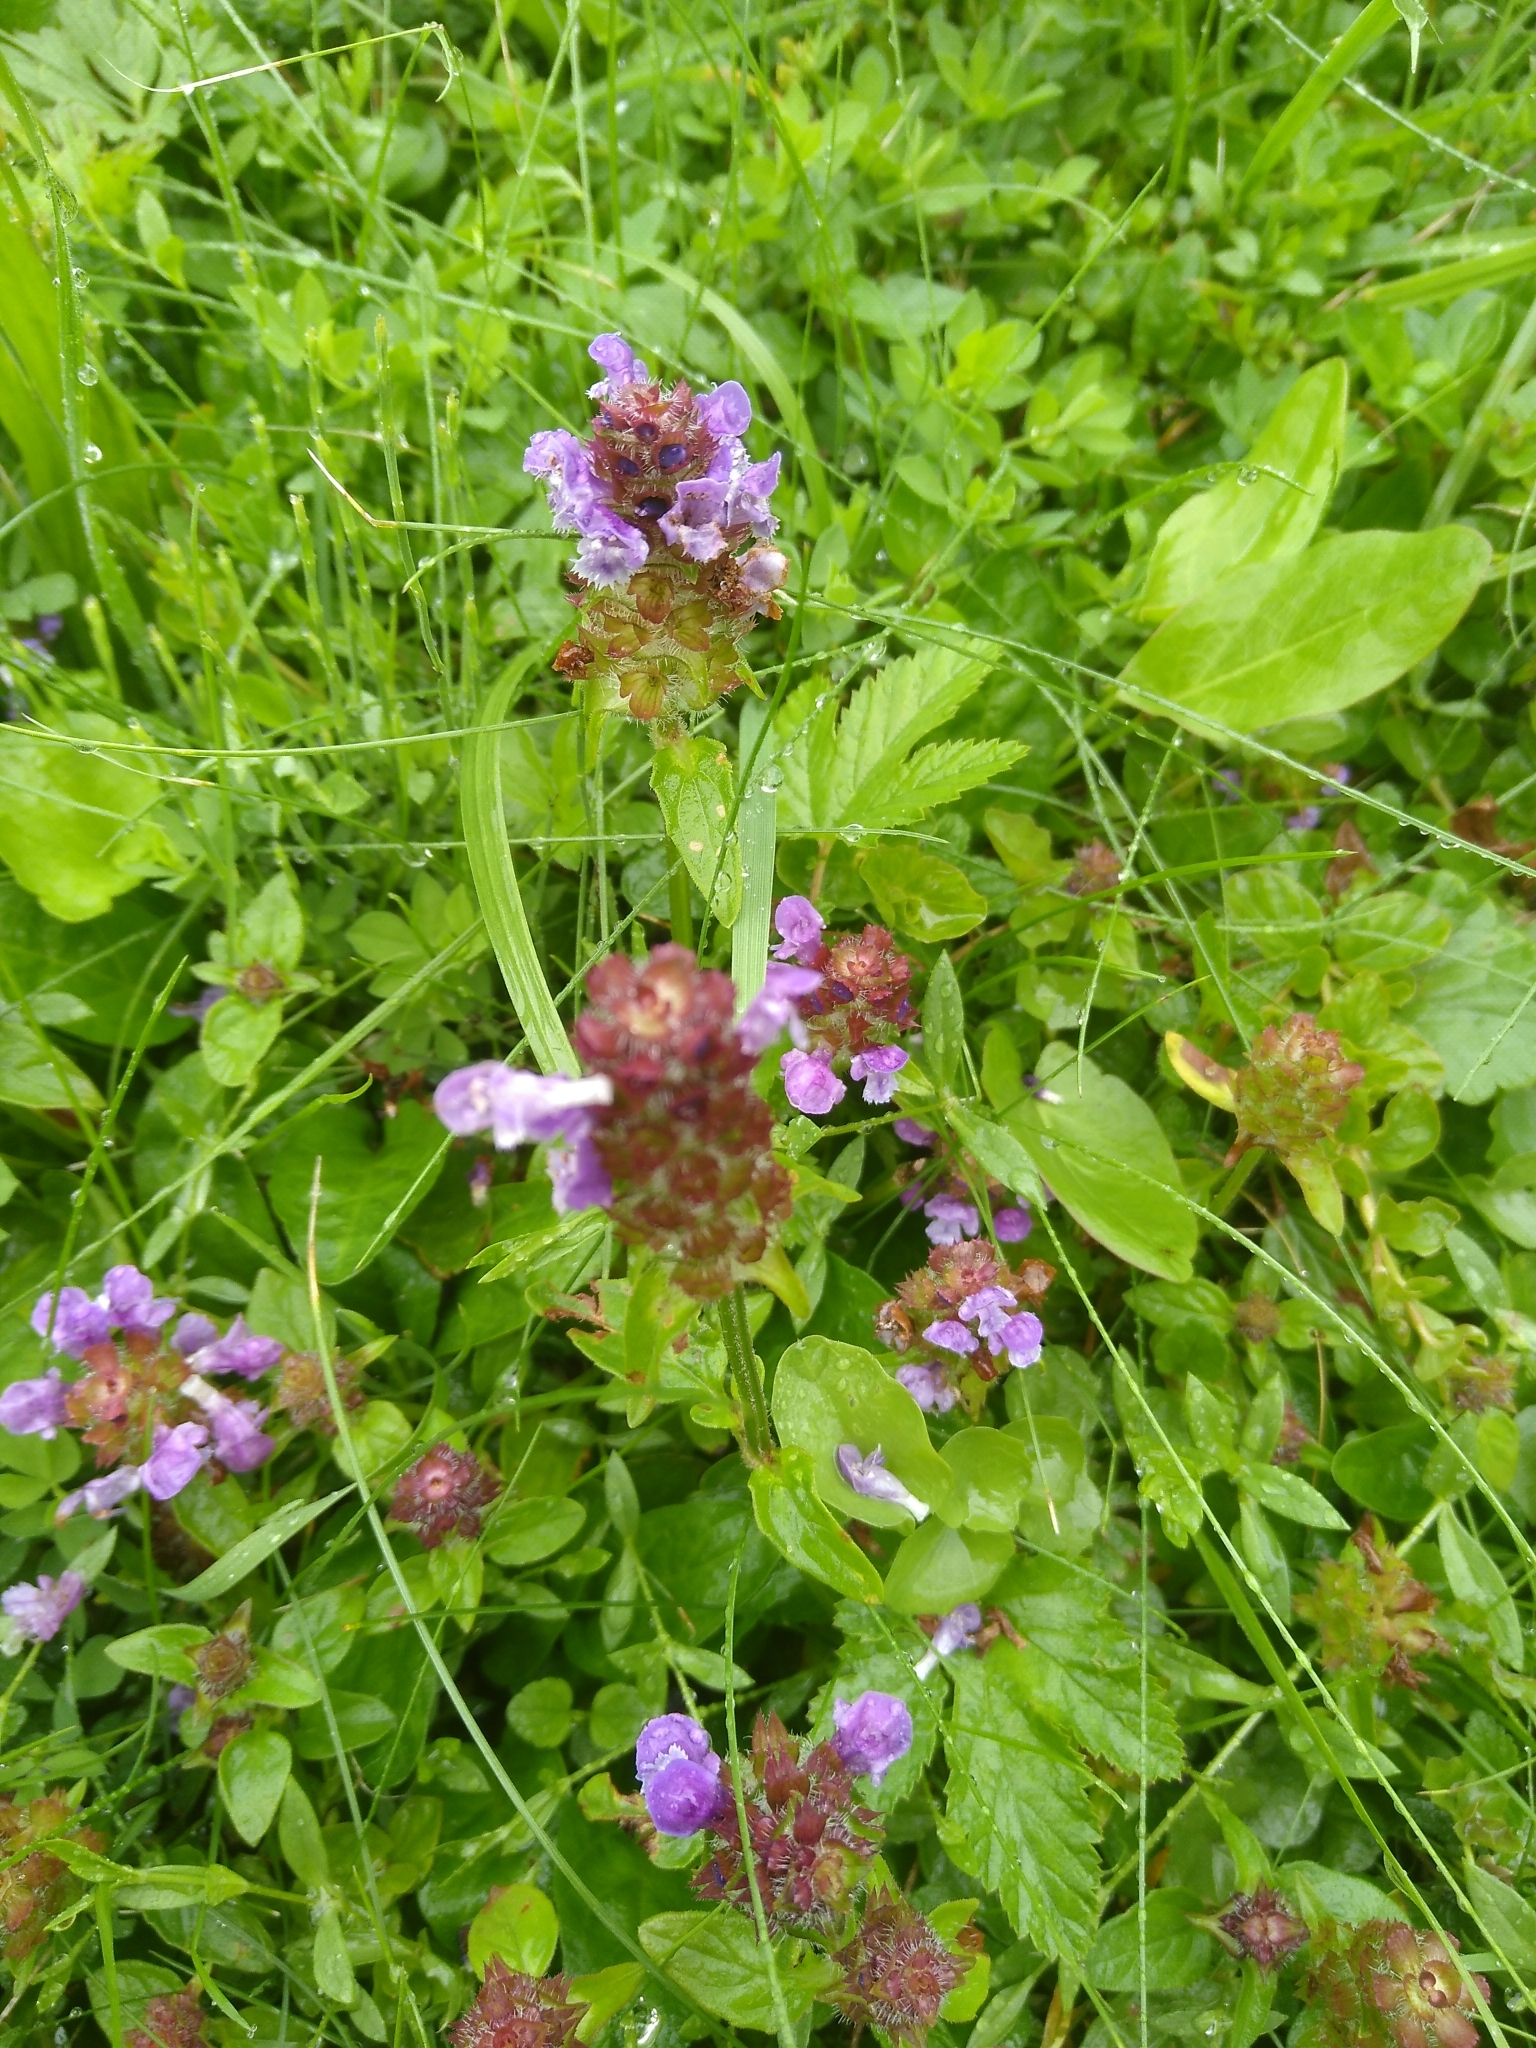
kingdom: Plantae
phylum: Tracheophyta
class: Magnoliopsida
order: Lamiales
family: Lamiaceae
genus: Prunella
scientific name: Prunella vulgaris
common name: Heal-all
